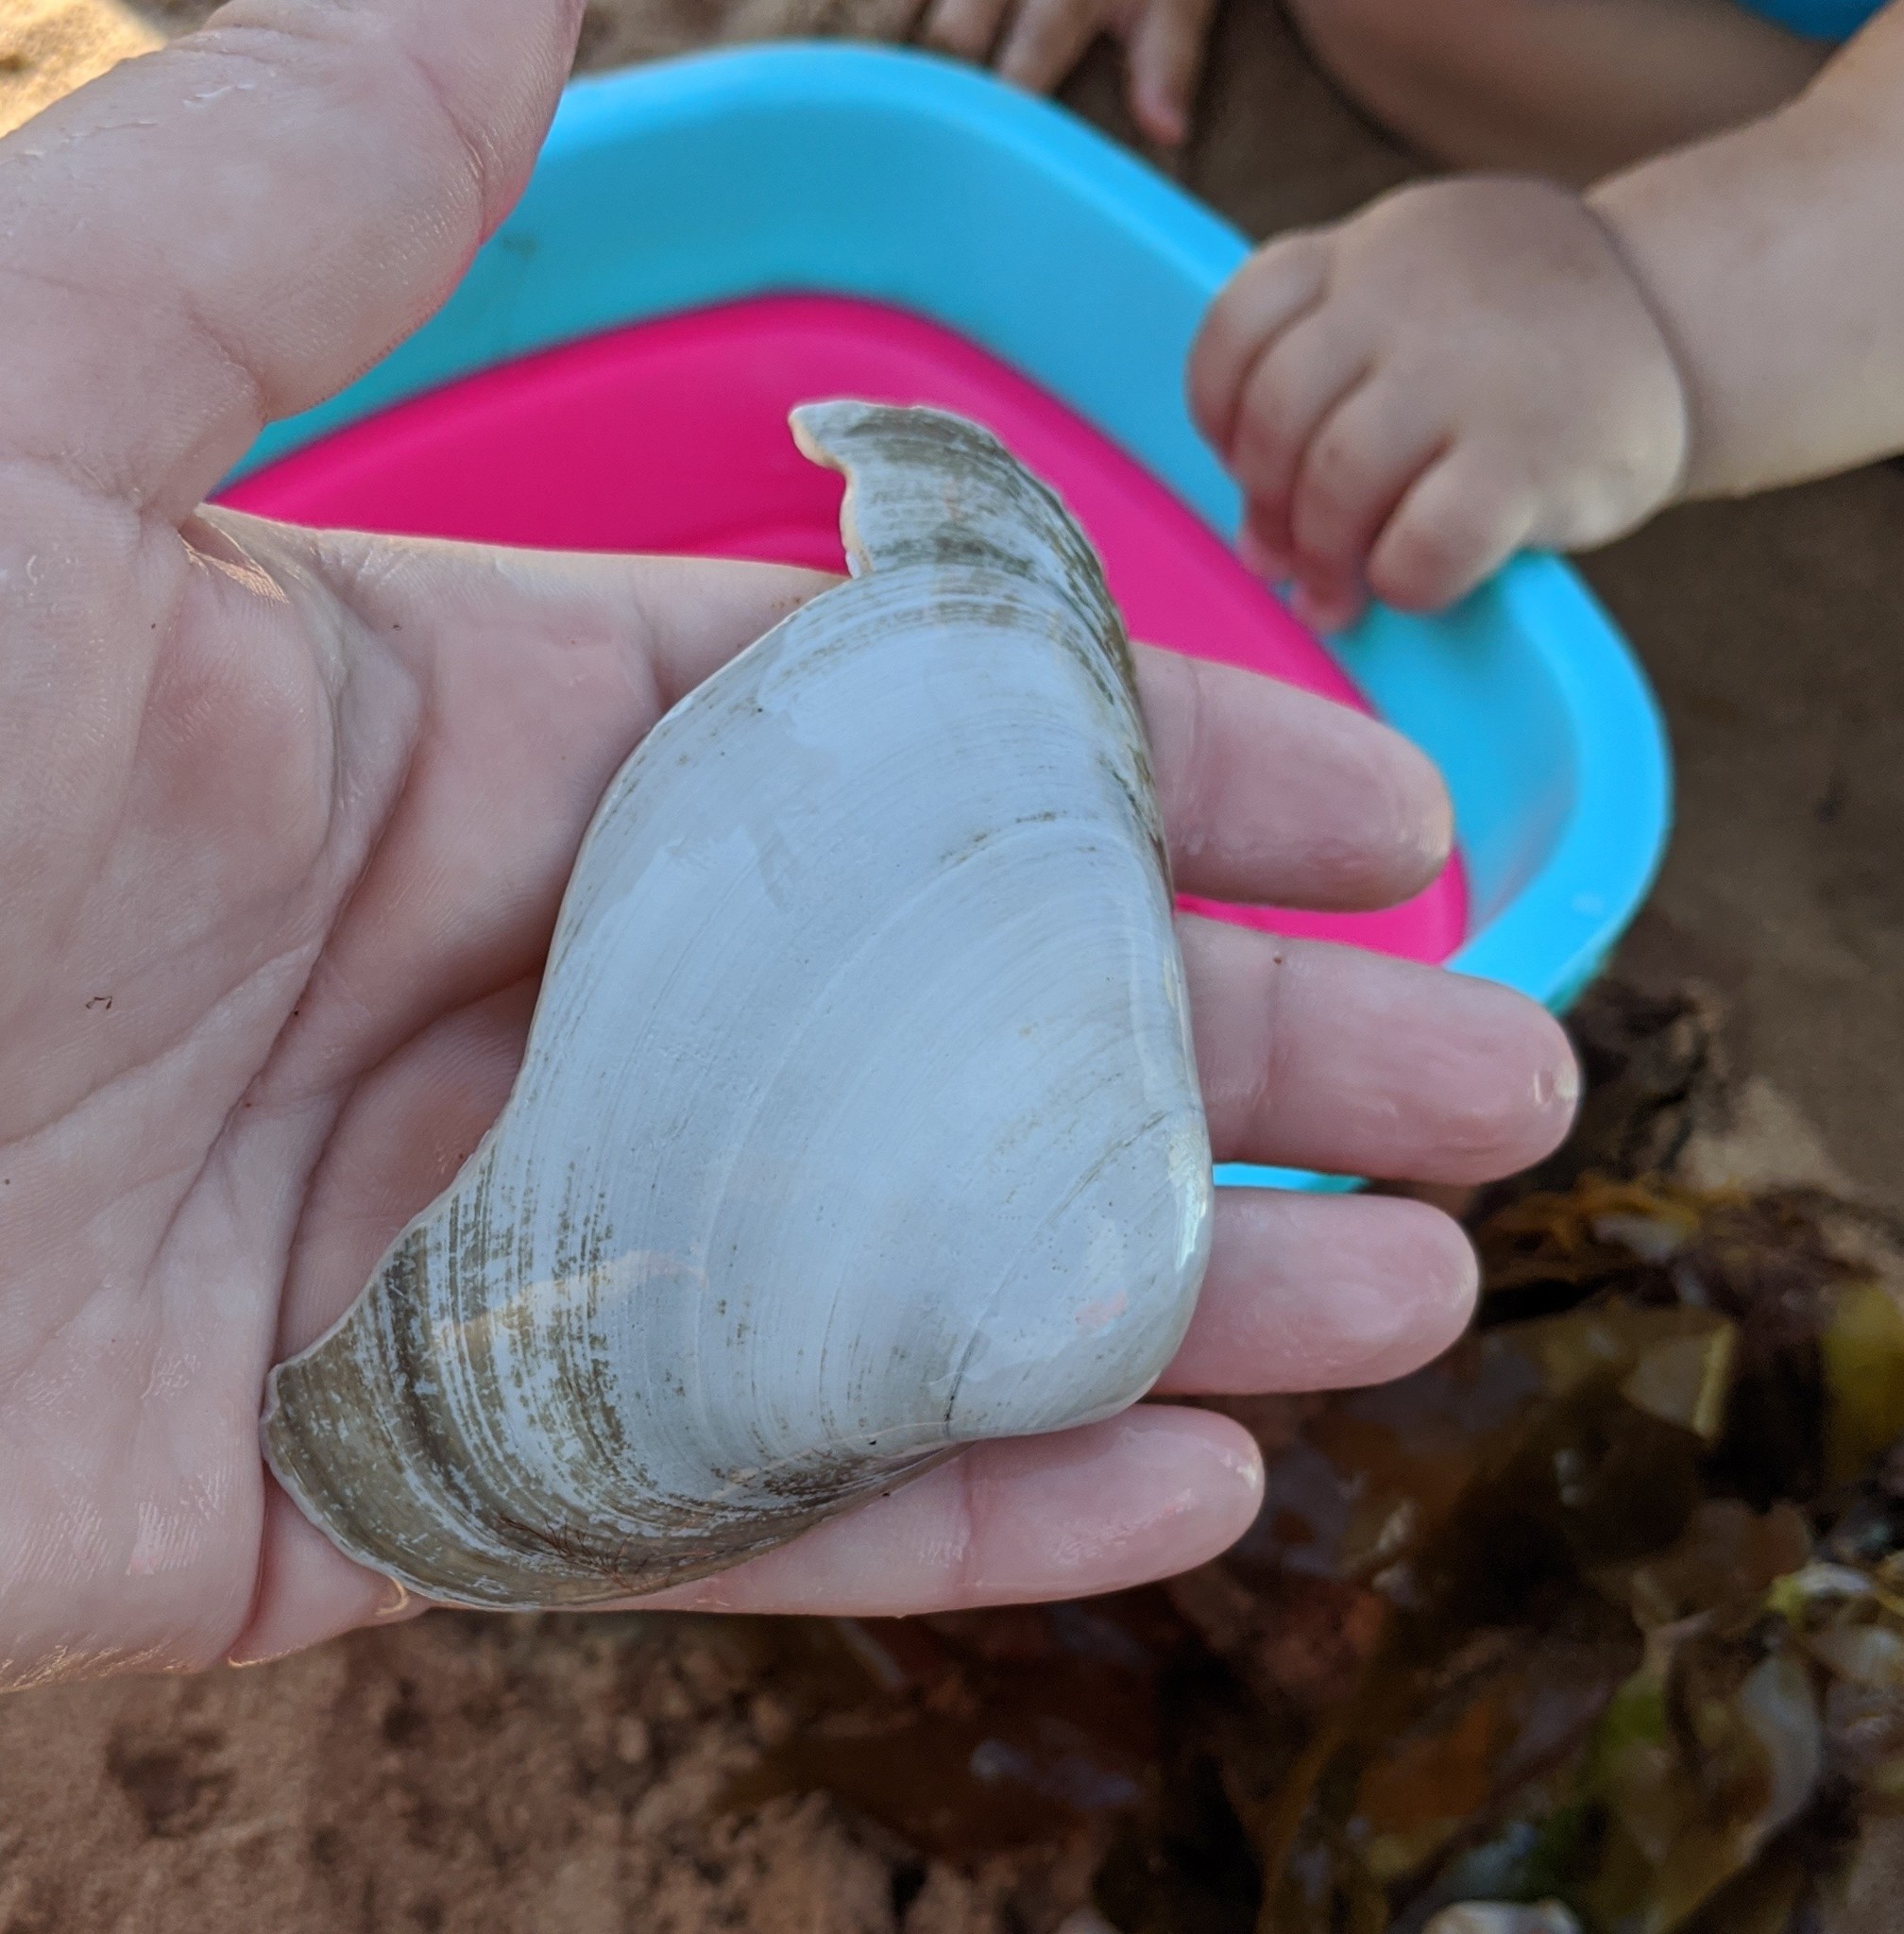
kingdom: Animalia
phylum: Mollusca
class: Bivalvia
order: Venerida
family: Mactridae
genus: Spisula
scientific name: Spisula solidissima
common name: Atlantic surf clam
